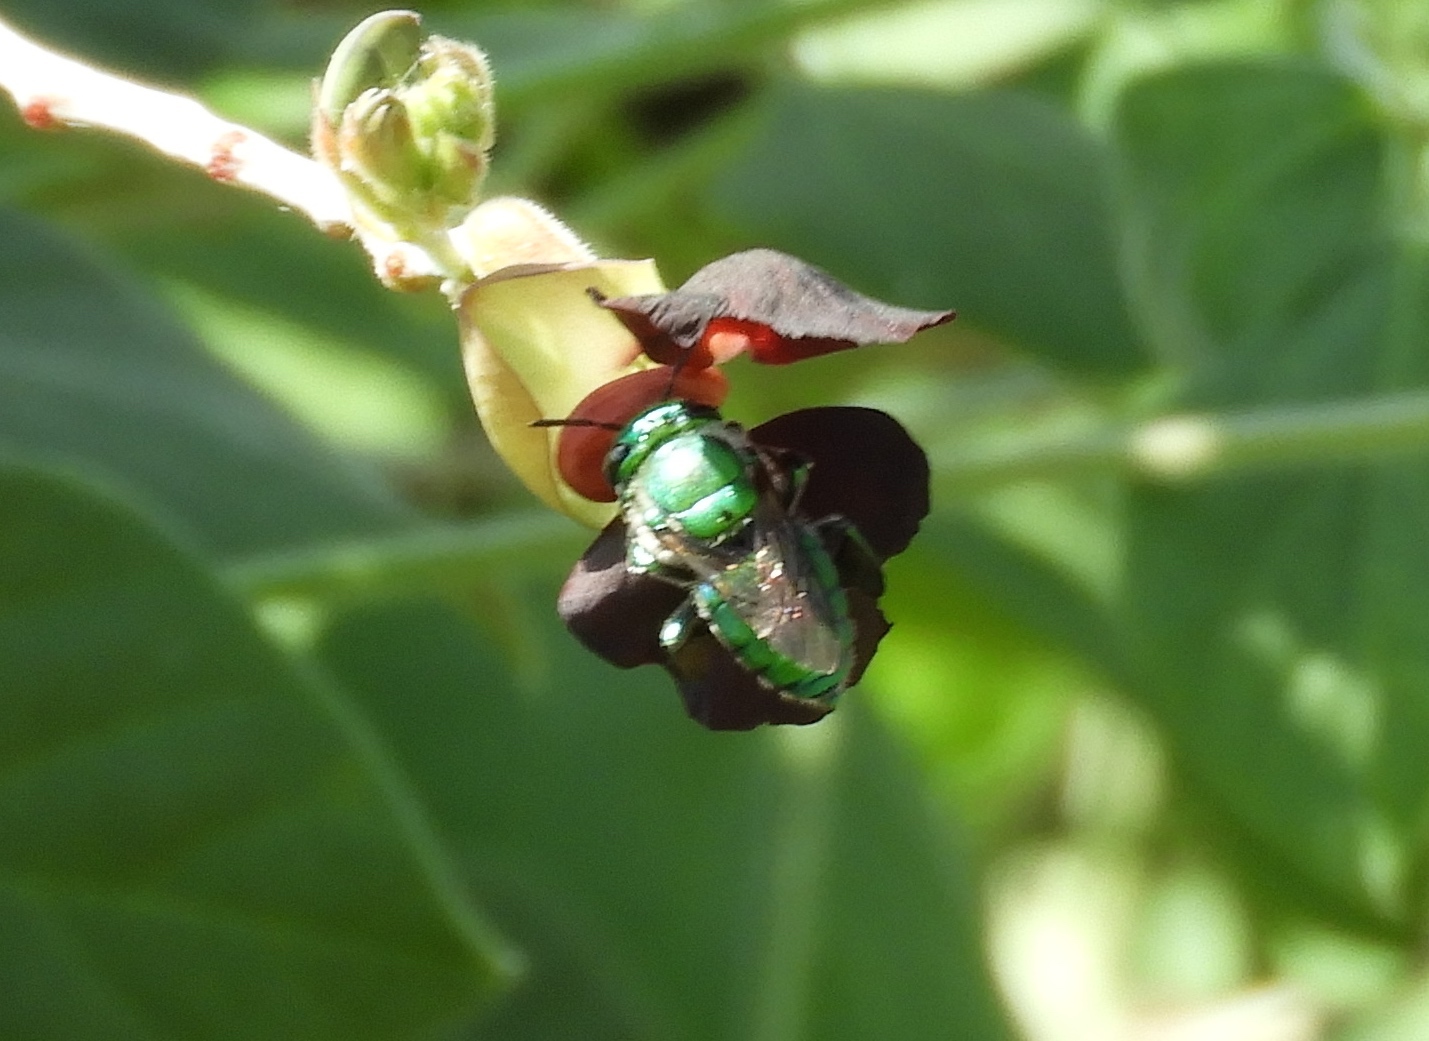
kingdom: Animalia
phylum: Arthropoda
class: Insecta
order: Hymenoptera
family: Apidae
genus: Euglossa
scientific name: Euglossa
